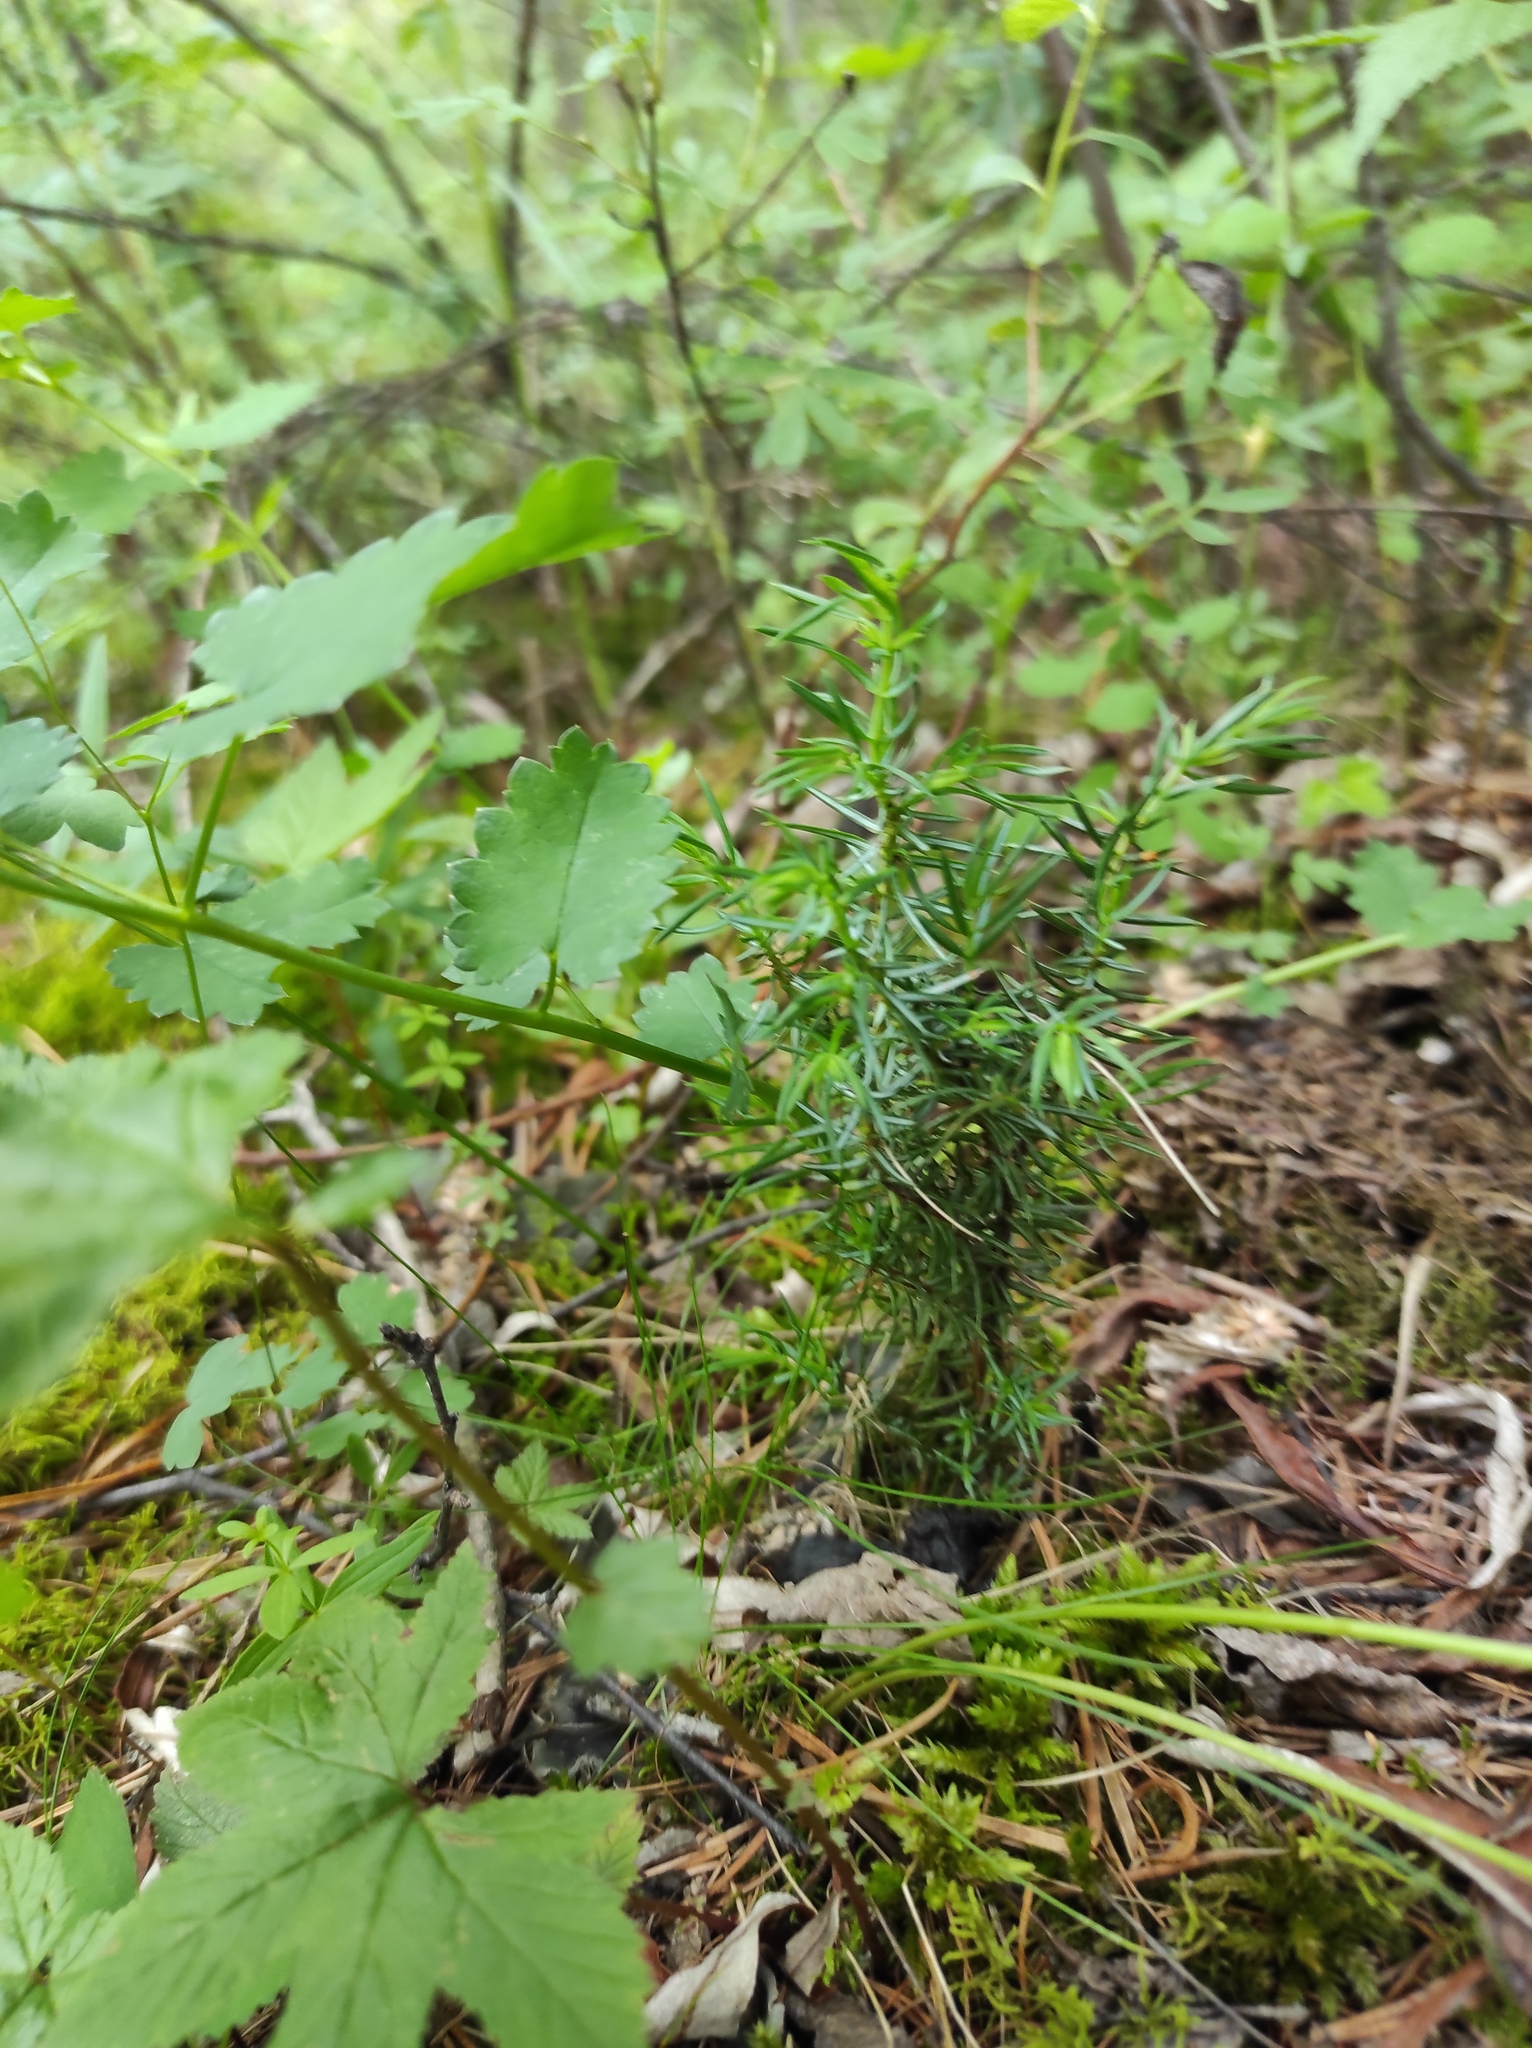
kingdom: Plantae
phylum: Tracheophyta
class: Magnoliopsida
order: Rosales
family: Rosaceae
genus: Sanguisorba
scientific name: Sanguisorba officinalis
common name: Great burnet
